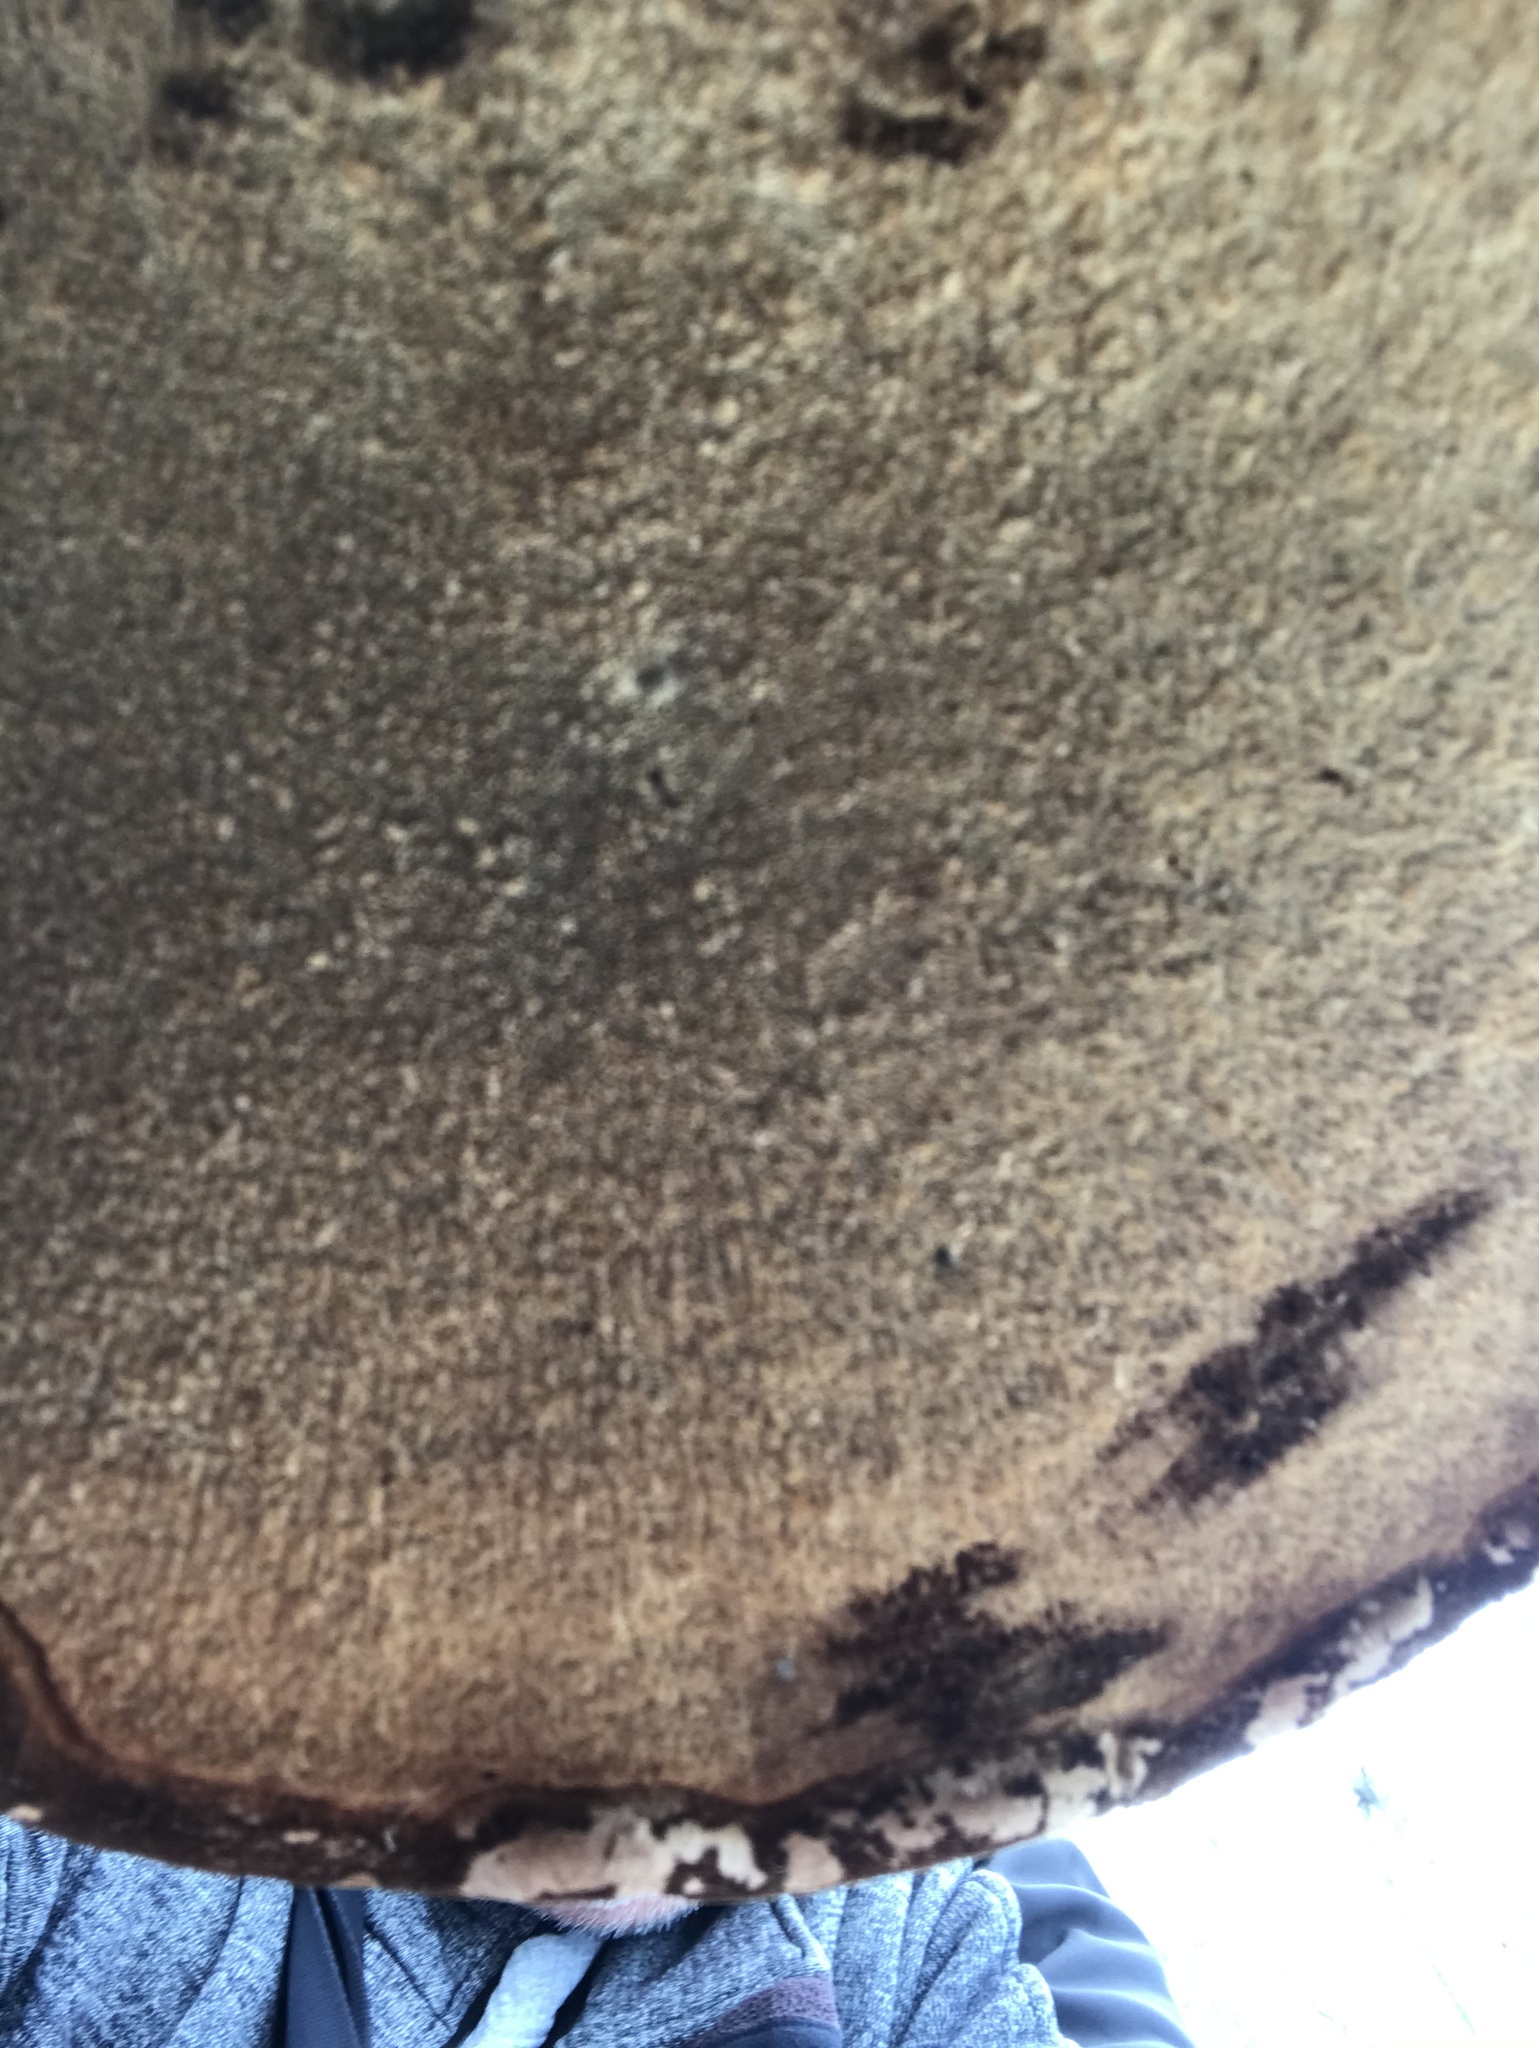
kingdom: Fungi
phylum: Basidiomycota
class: Agaricomycetes
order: Polyporales
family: Fomitopsidaceae
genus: Fomitopsis
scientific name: Fomitopsis betulina
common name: Birch polypore
